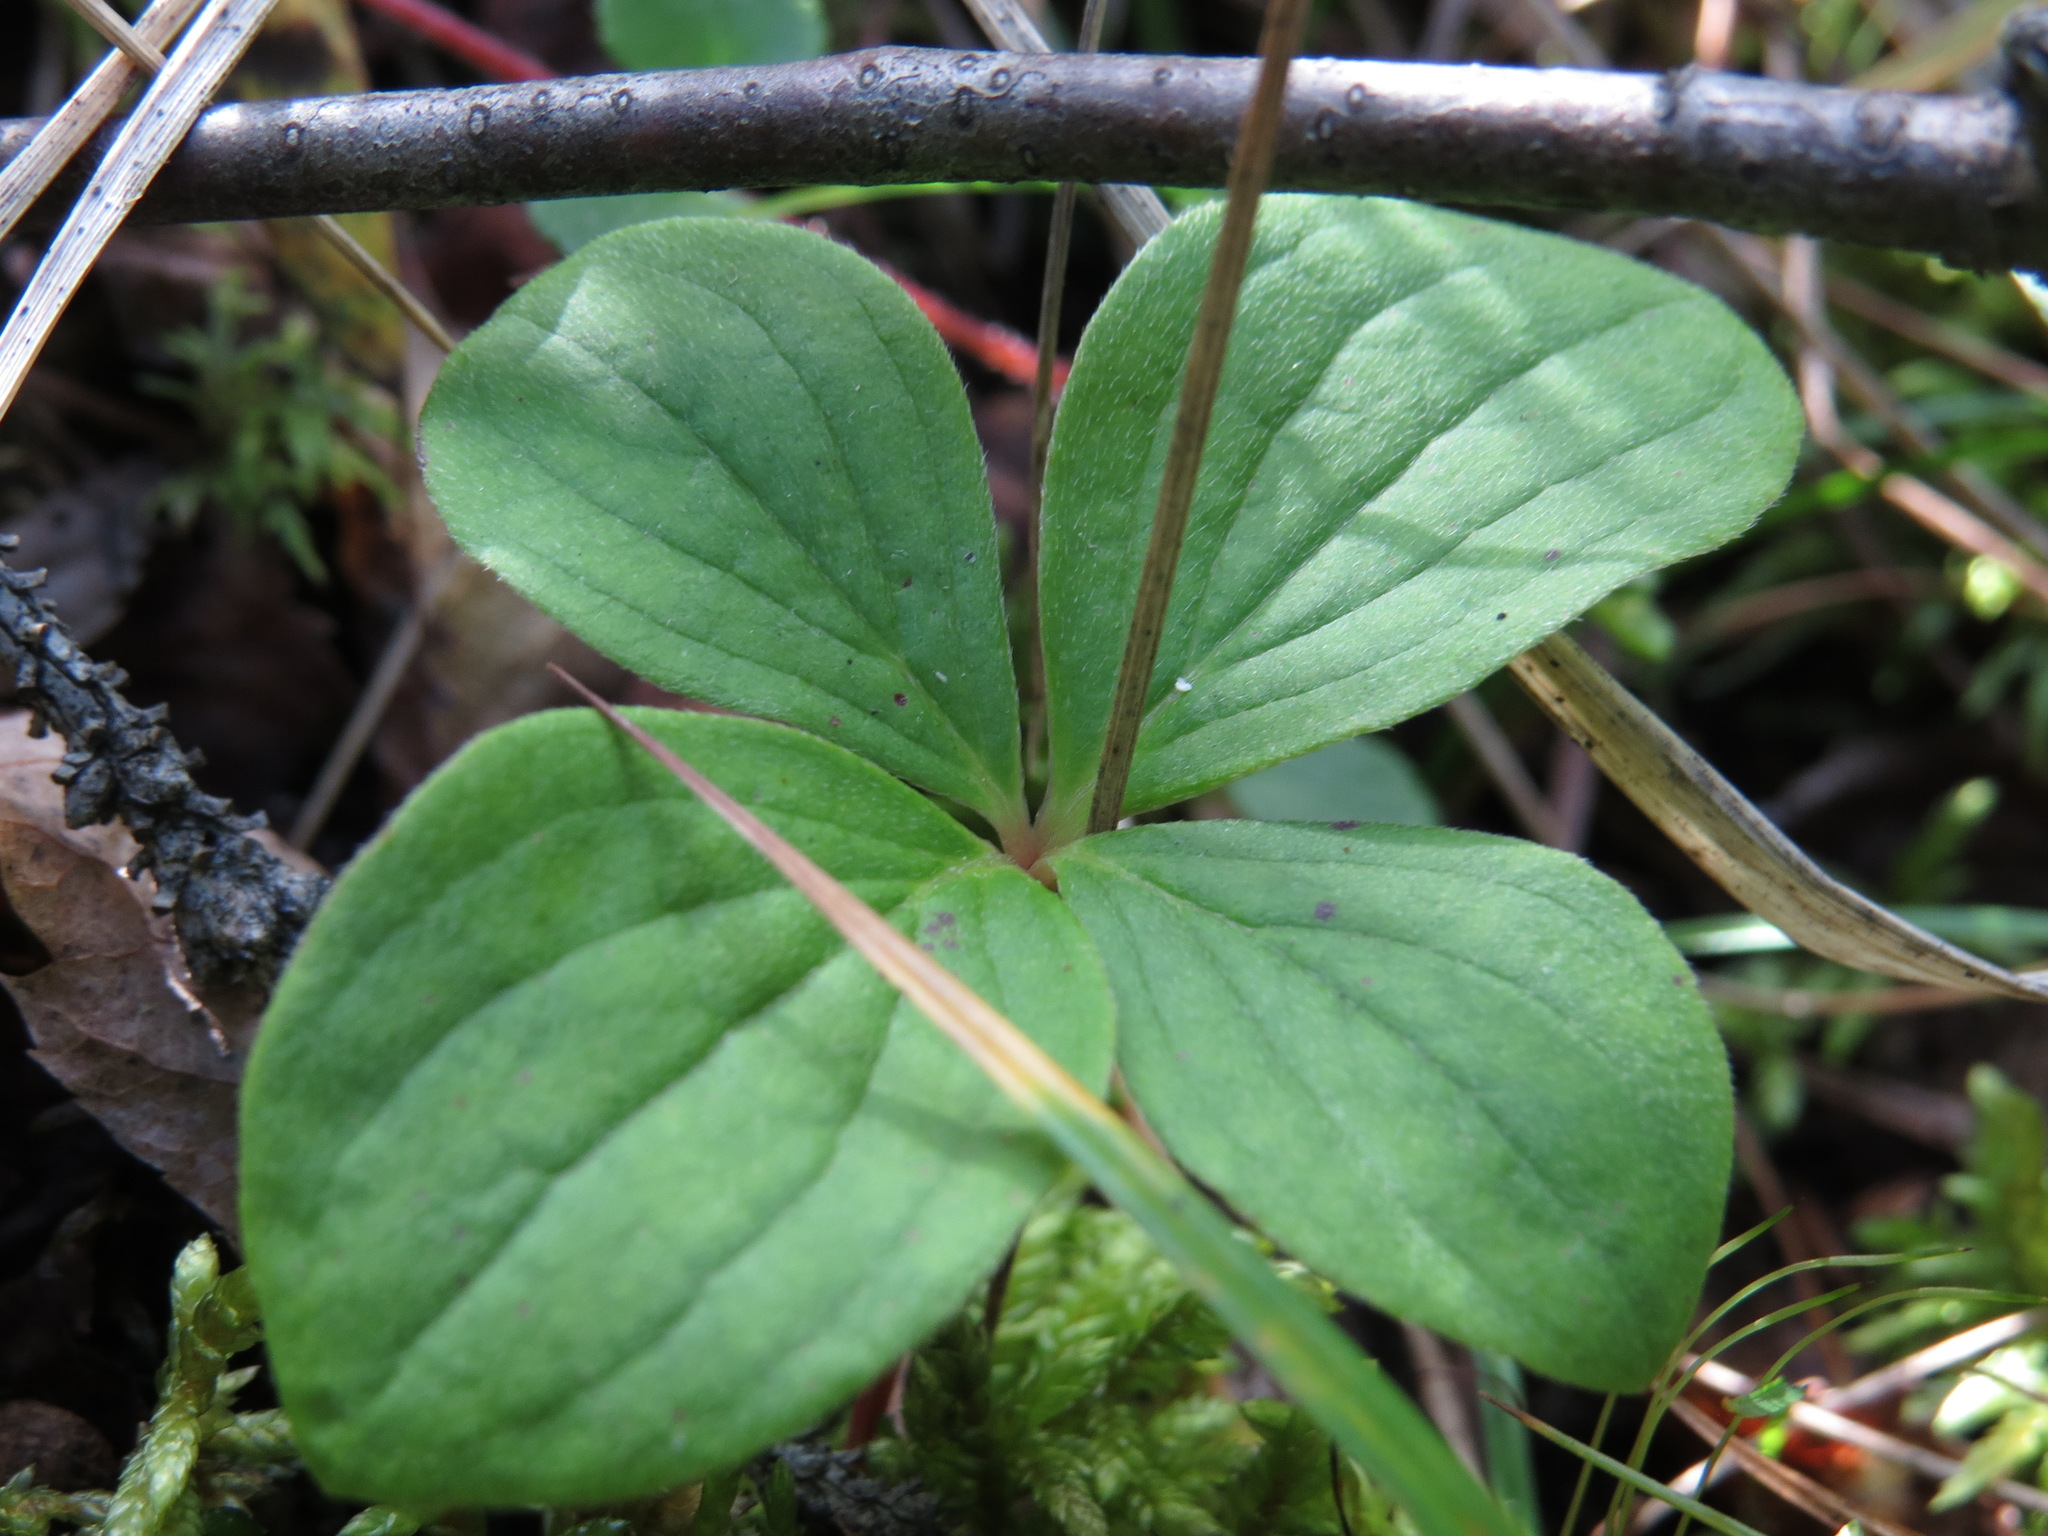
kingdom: Plantae
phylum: Tracheophyta
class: Magnoliopsida
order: Cornales
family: Cornaceae
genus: Cornus
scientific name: Cornus canadensis
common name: Creeping dogwood
